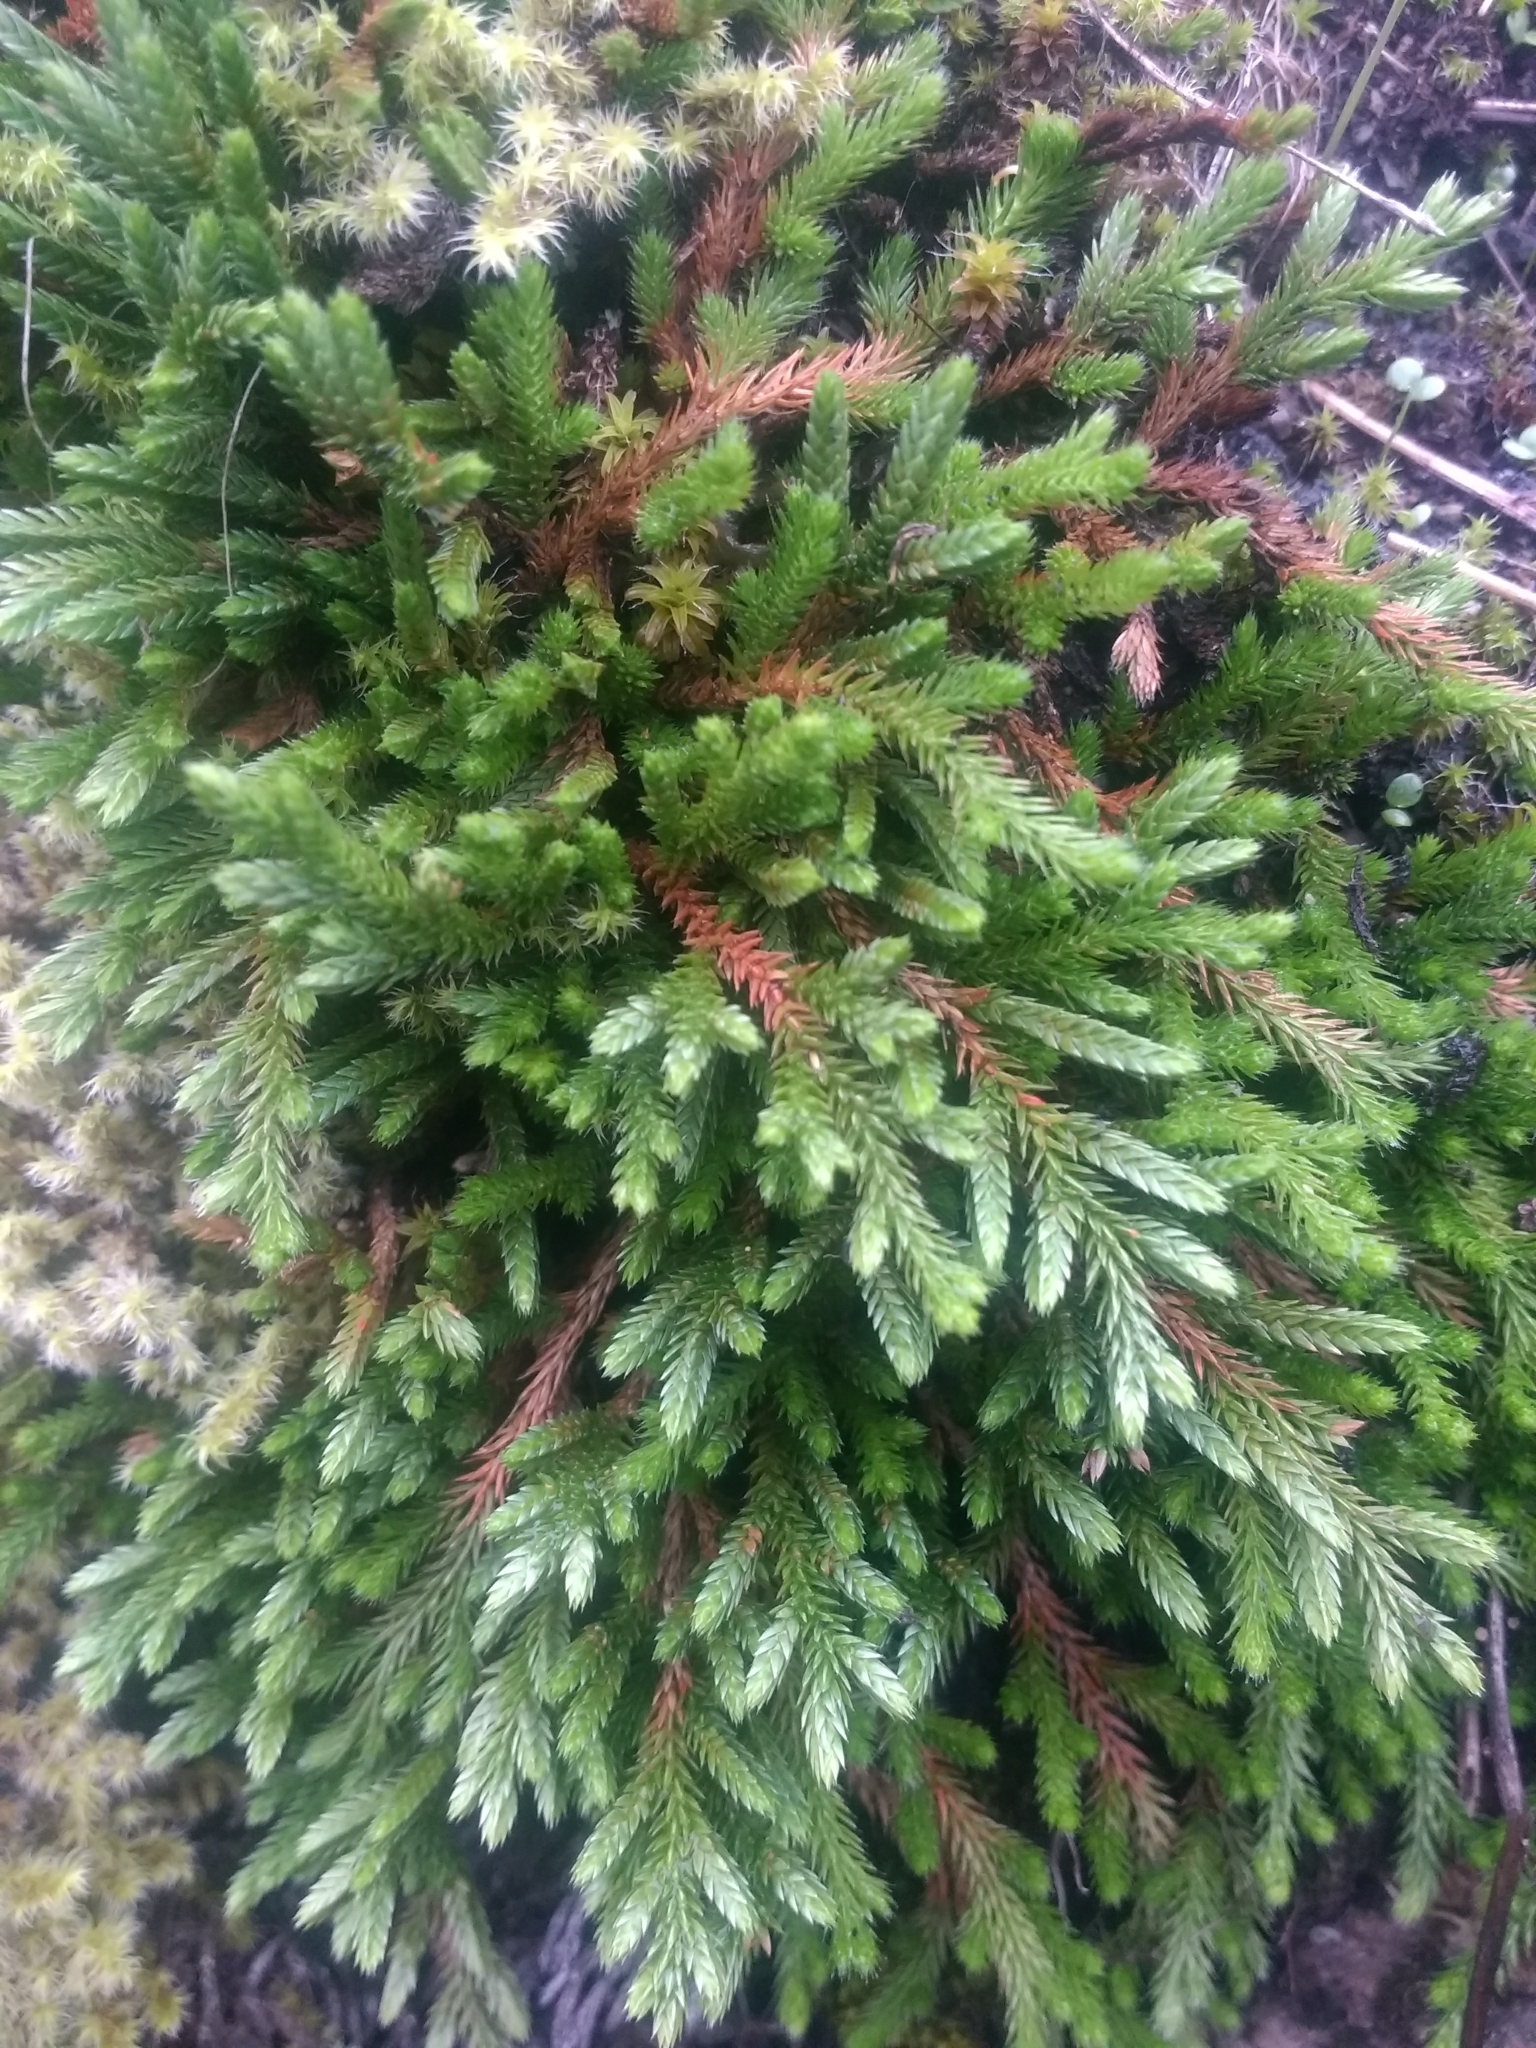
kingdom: Plantae
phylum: Tracheophyta
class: Lycopodiopsida
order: Selaginellales
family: Selaginellaceae
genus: Selaginella
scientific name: Selaginella wallacei
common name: Wallace's selaginella
